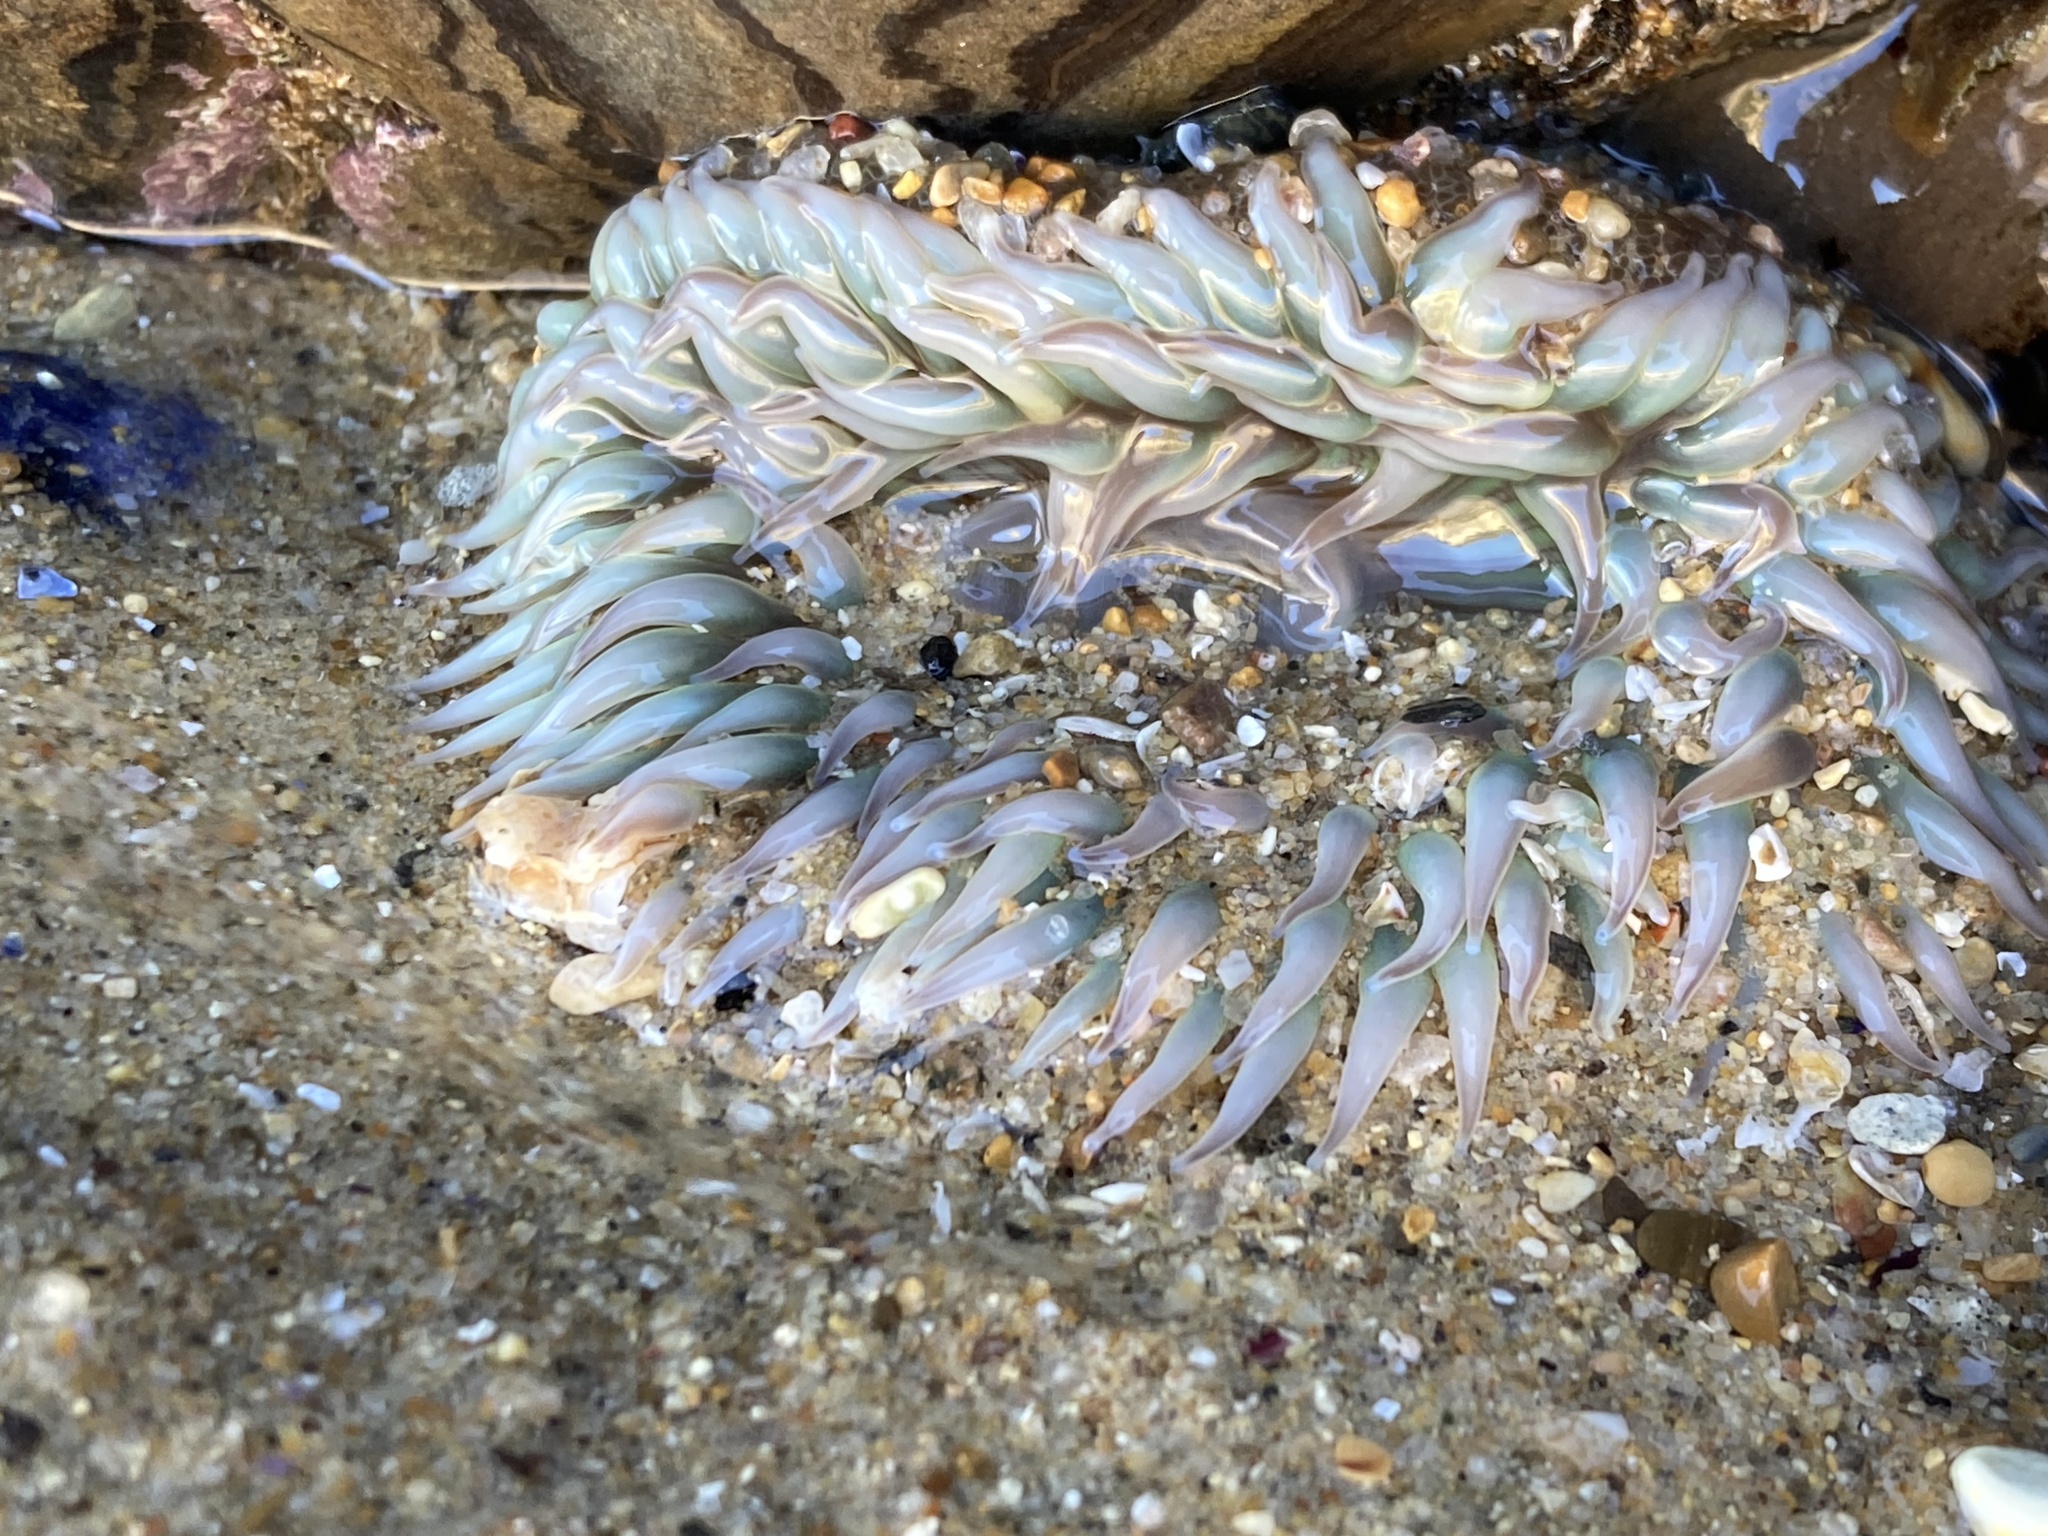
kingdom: Animalia
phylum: Cnidaria
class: Anthozoa
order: Actiniaria
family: Actiniidae
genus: Anthopleura
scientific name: Anthopleura sola
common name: Sun anemone
